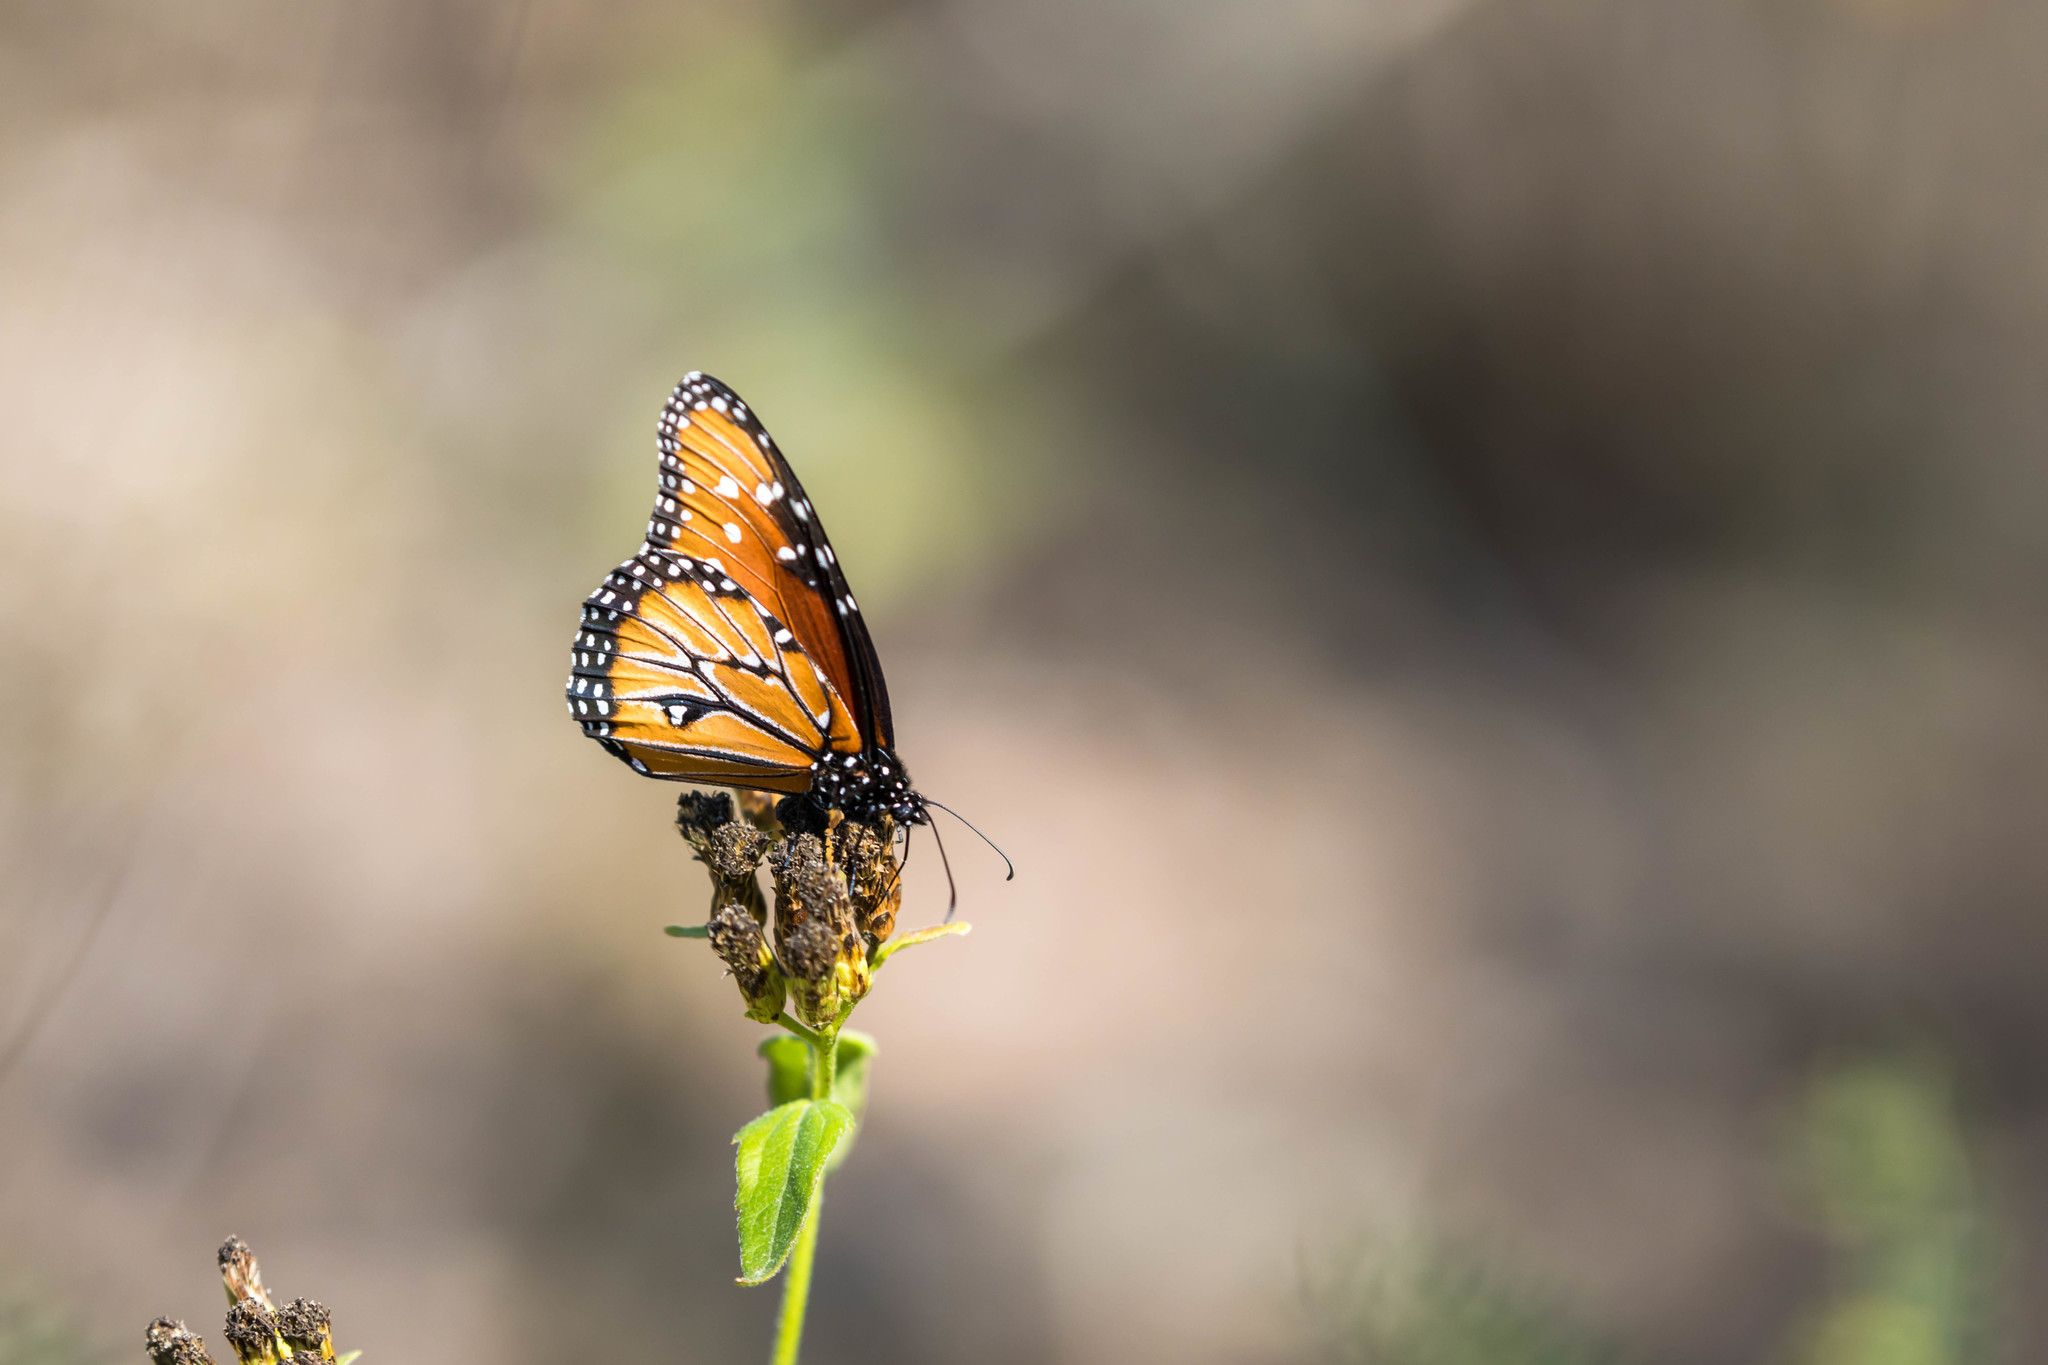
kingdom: Animalia
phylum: Arthropoda
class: Insecta
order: Lepidoptera
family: Nymphalidae
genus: Danaus
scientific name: Danaus gilippus
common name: Queen
